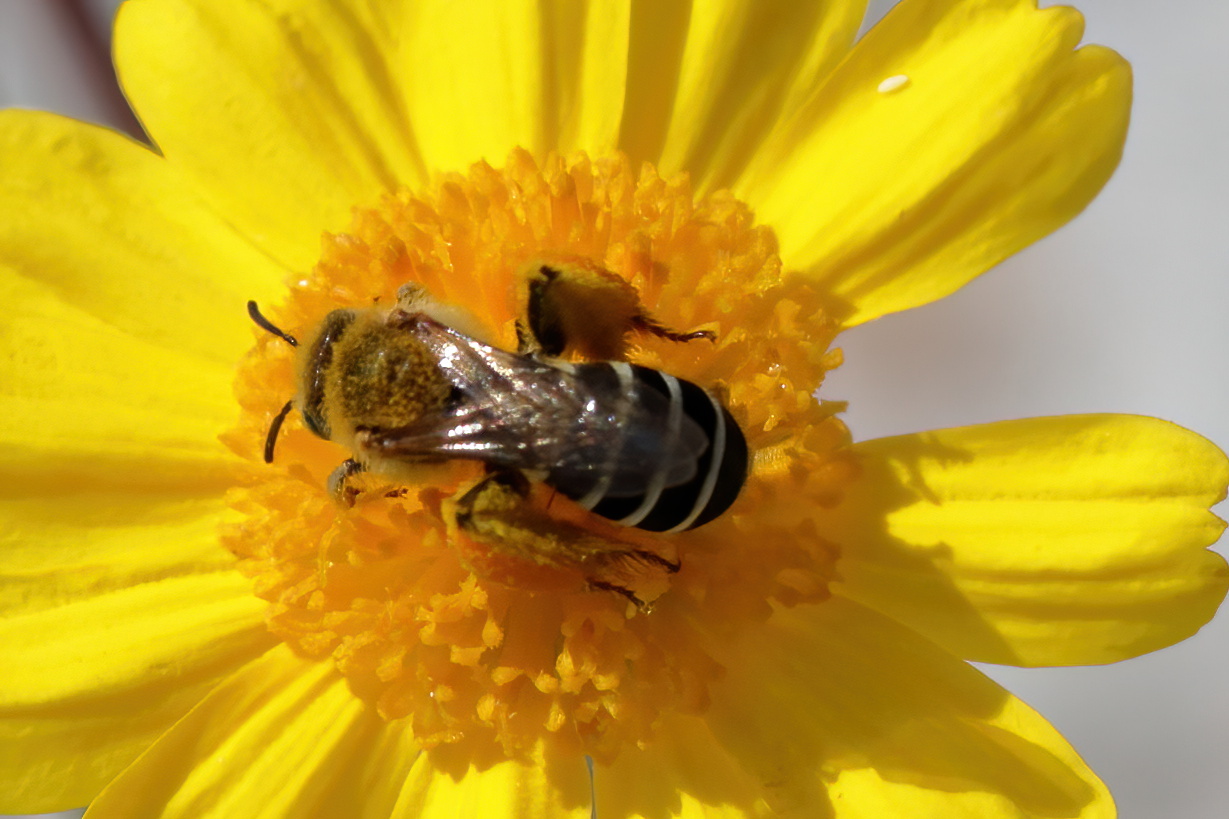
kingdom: Animalia
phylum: Arthropoda
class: Insecta
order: Hymenoptera
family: Melittidae
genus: Hesperapis
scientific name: Hesperapis oraria
